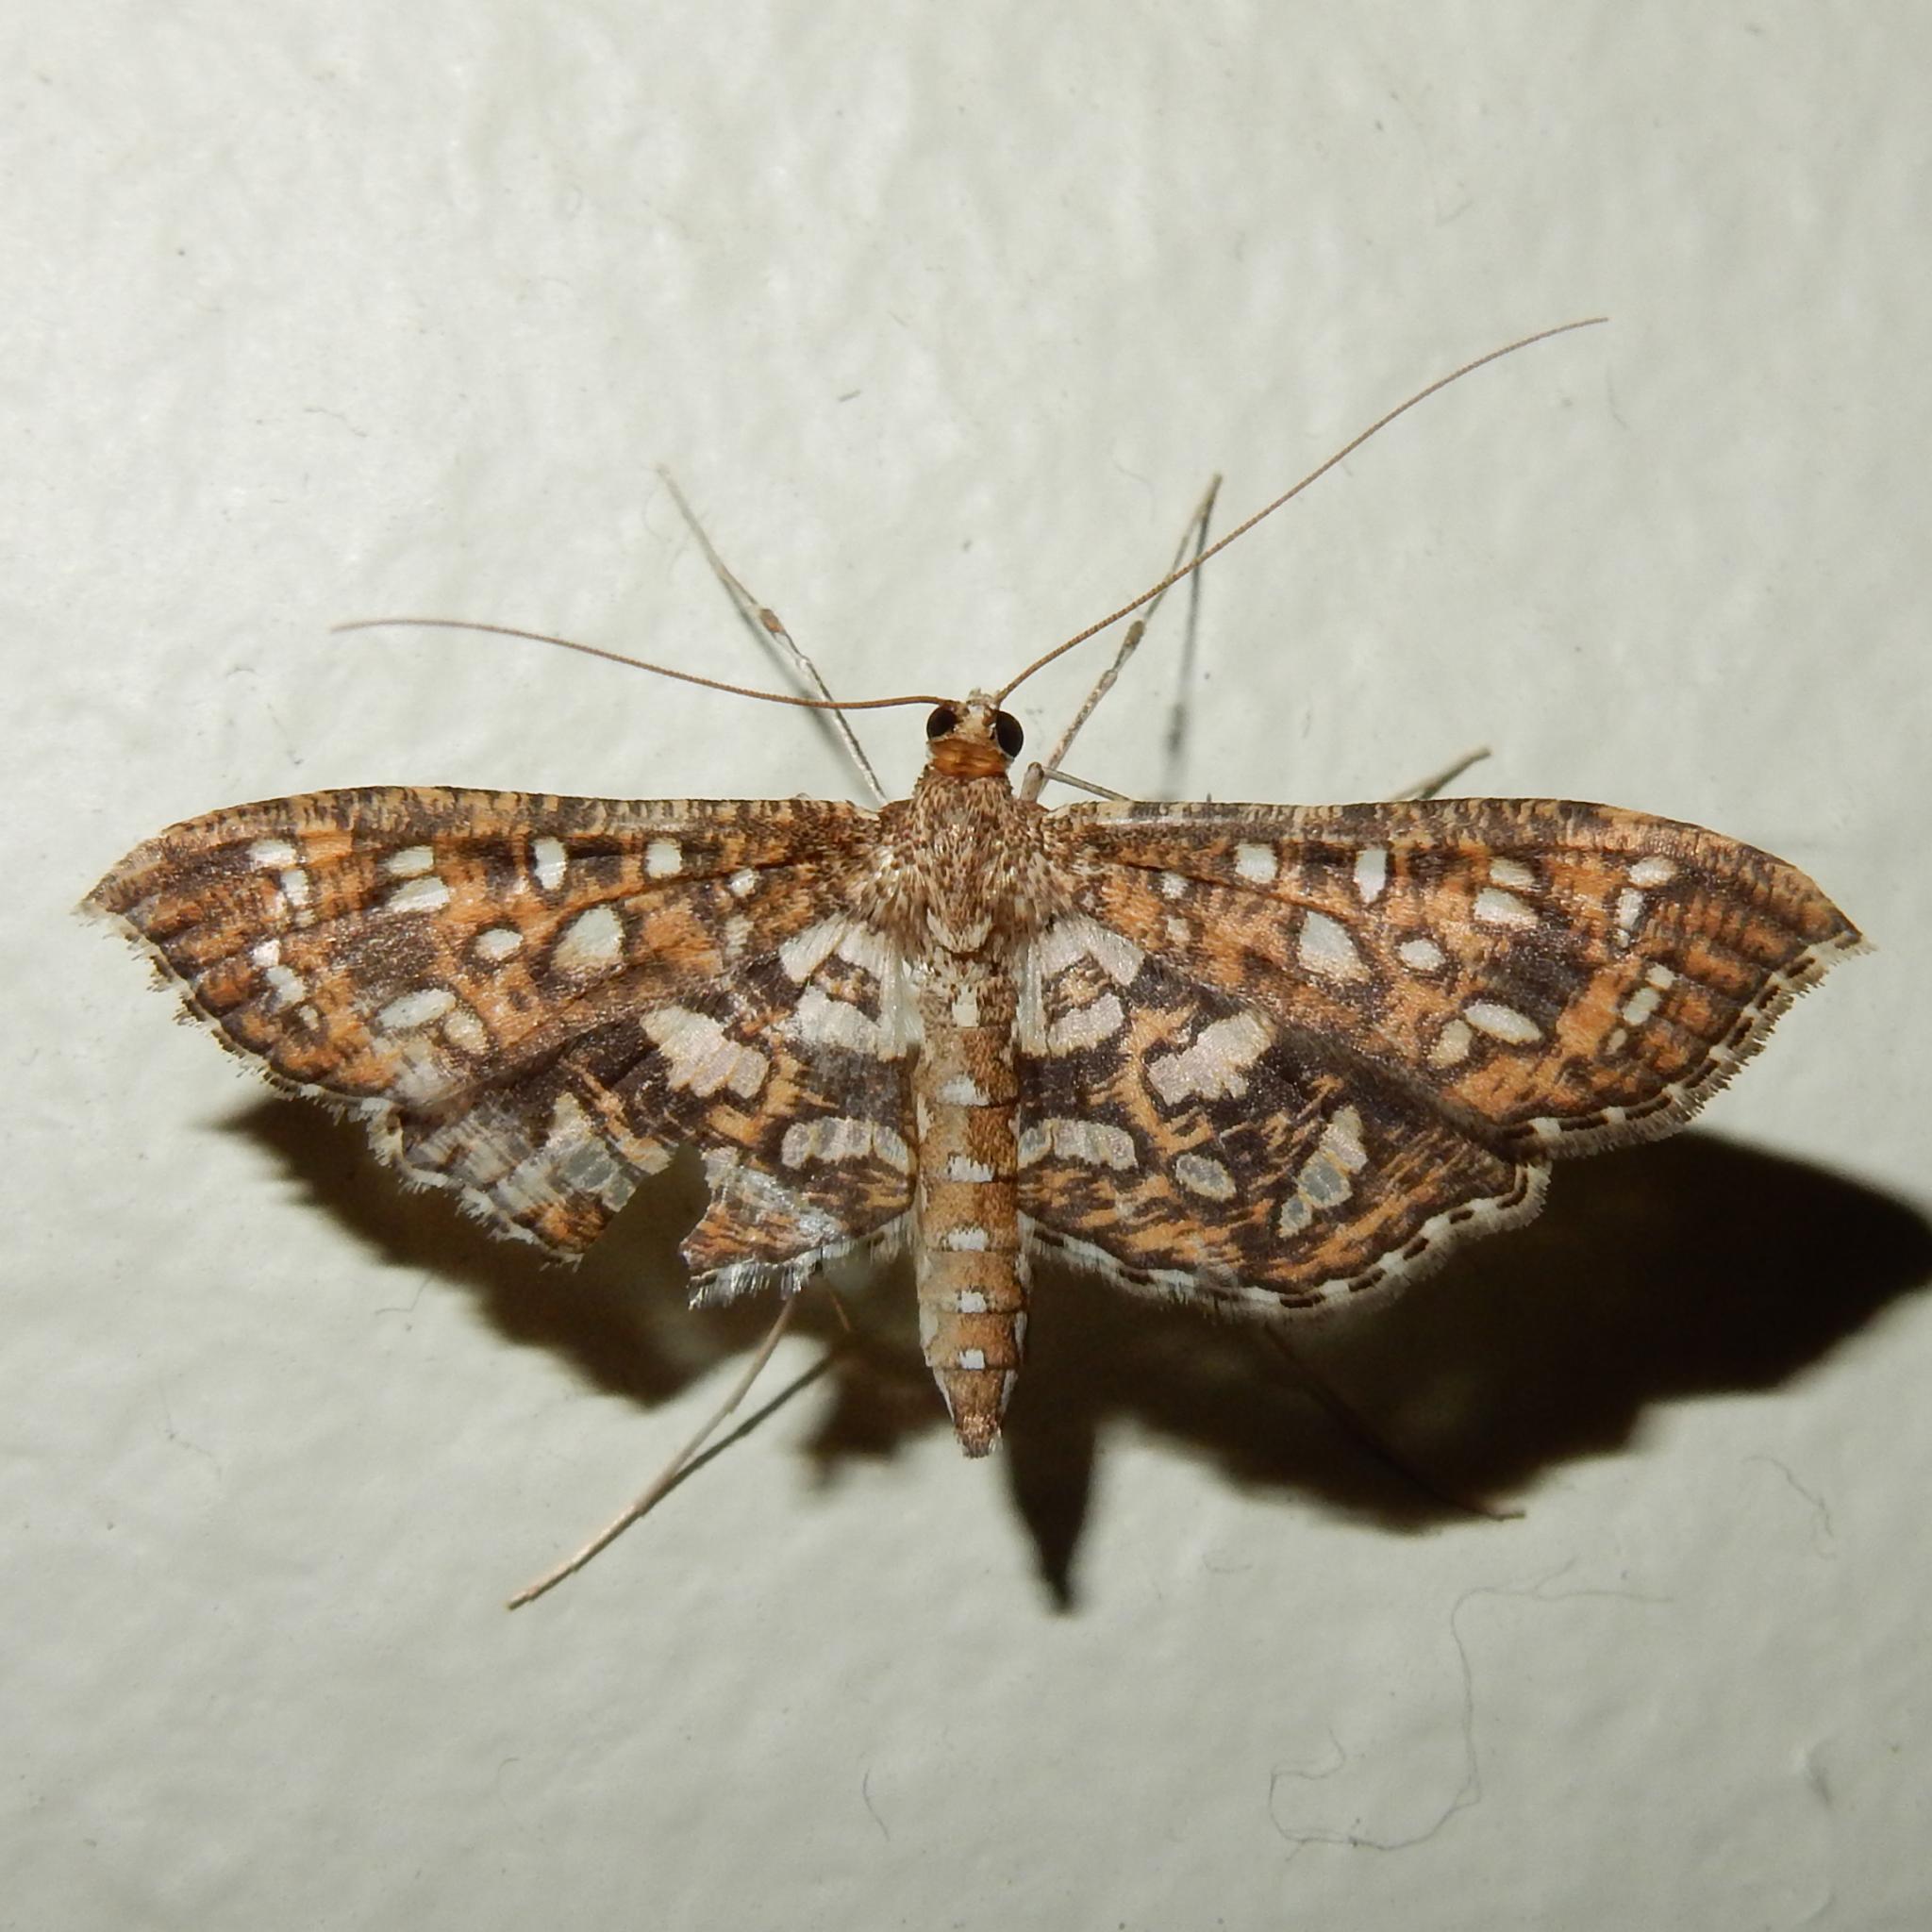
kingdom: Animalia
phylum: Arthropoda
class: Insecta
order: Lepidoptera
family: Crambidae
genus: Nausinoe
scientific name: Nausinoe geometralis
